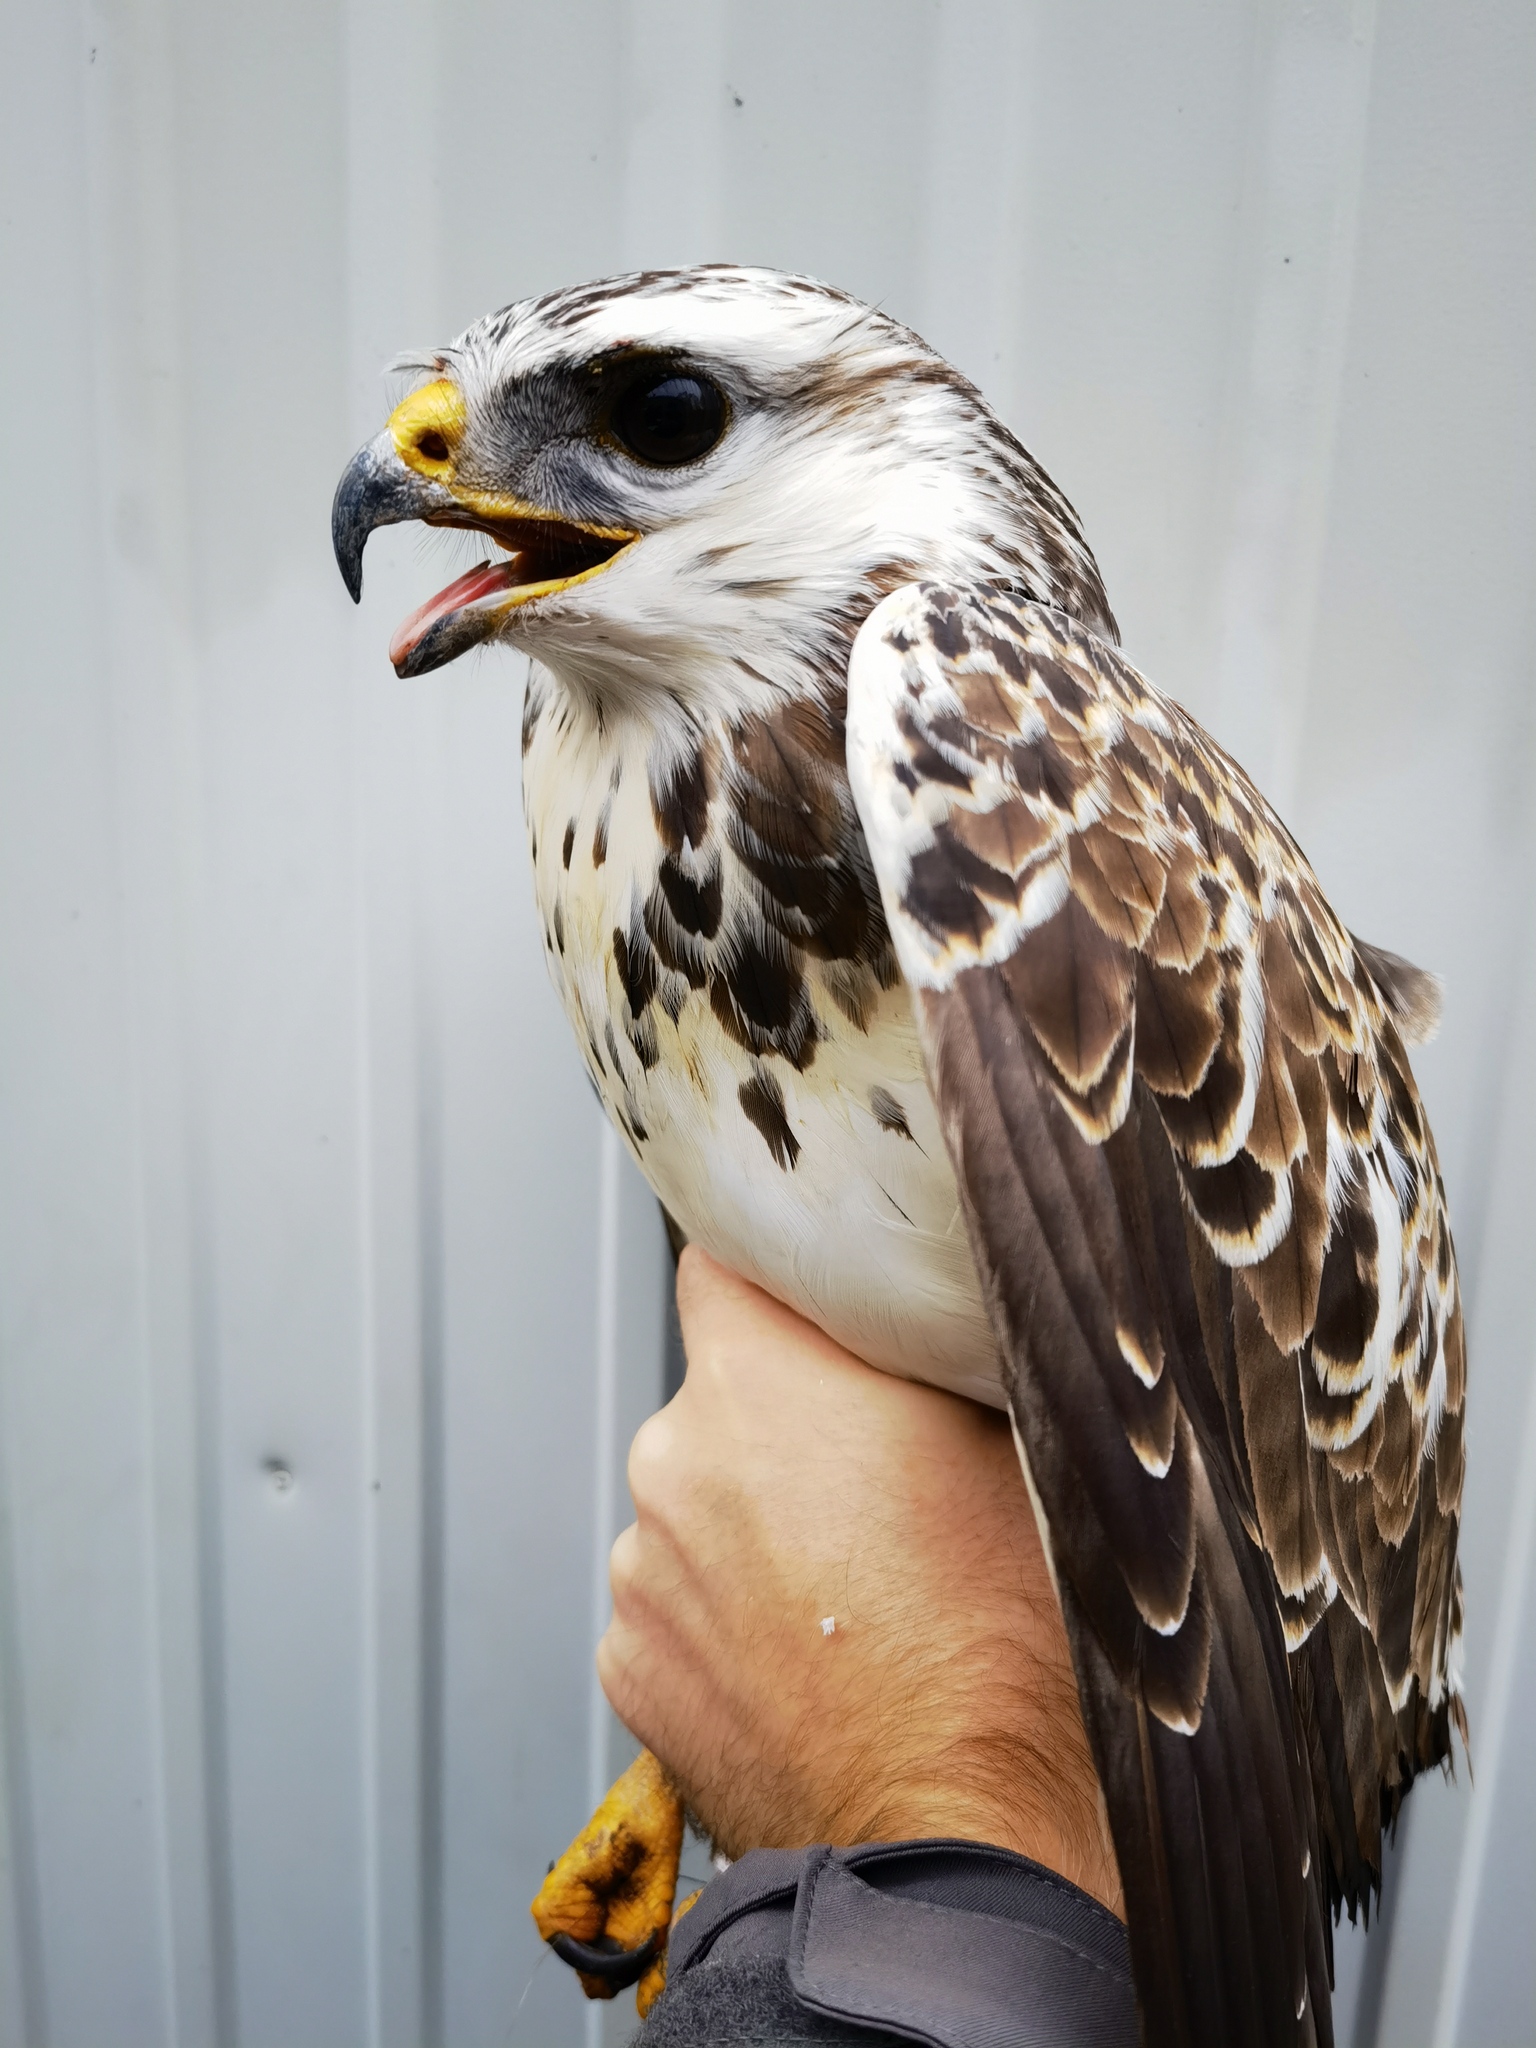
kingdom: Animalia
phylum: Chordata
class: Aves
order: Accipitriformes
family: Accipitridae
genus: Buteo
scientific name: Buteo buteo
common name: Common buzzard
